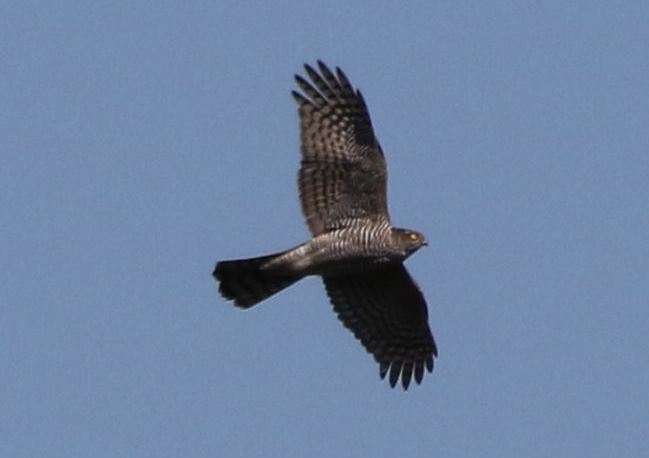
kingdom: Animalia
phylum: Chordata
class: Aves
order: Accipitriformes
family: Accipitridae
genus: Accipiter
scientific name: Accipiter nisus
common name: Eurasian sparrowhawk
